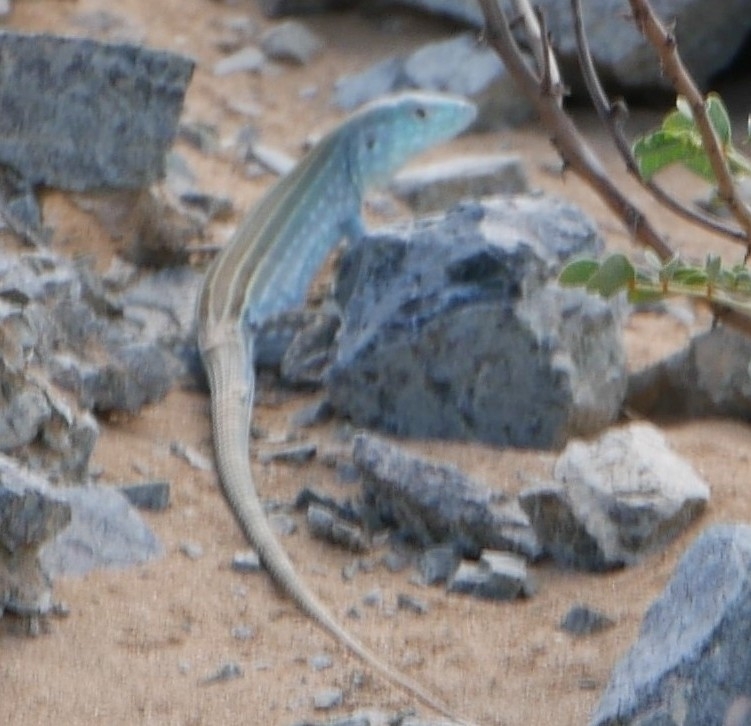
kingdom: Animalia
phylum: Chordata
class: Squamata
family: Teiidae
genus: Cnemidophorus
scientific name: Cnemidophorus splendidus
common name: Blue rainbow lizard
